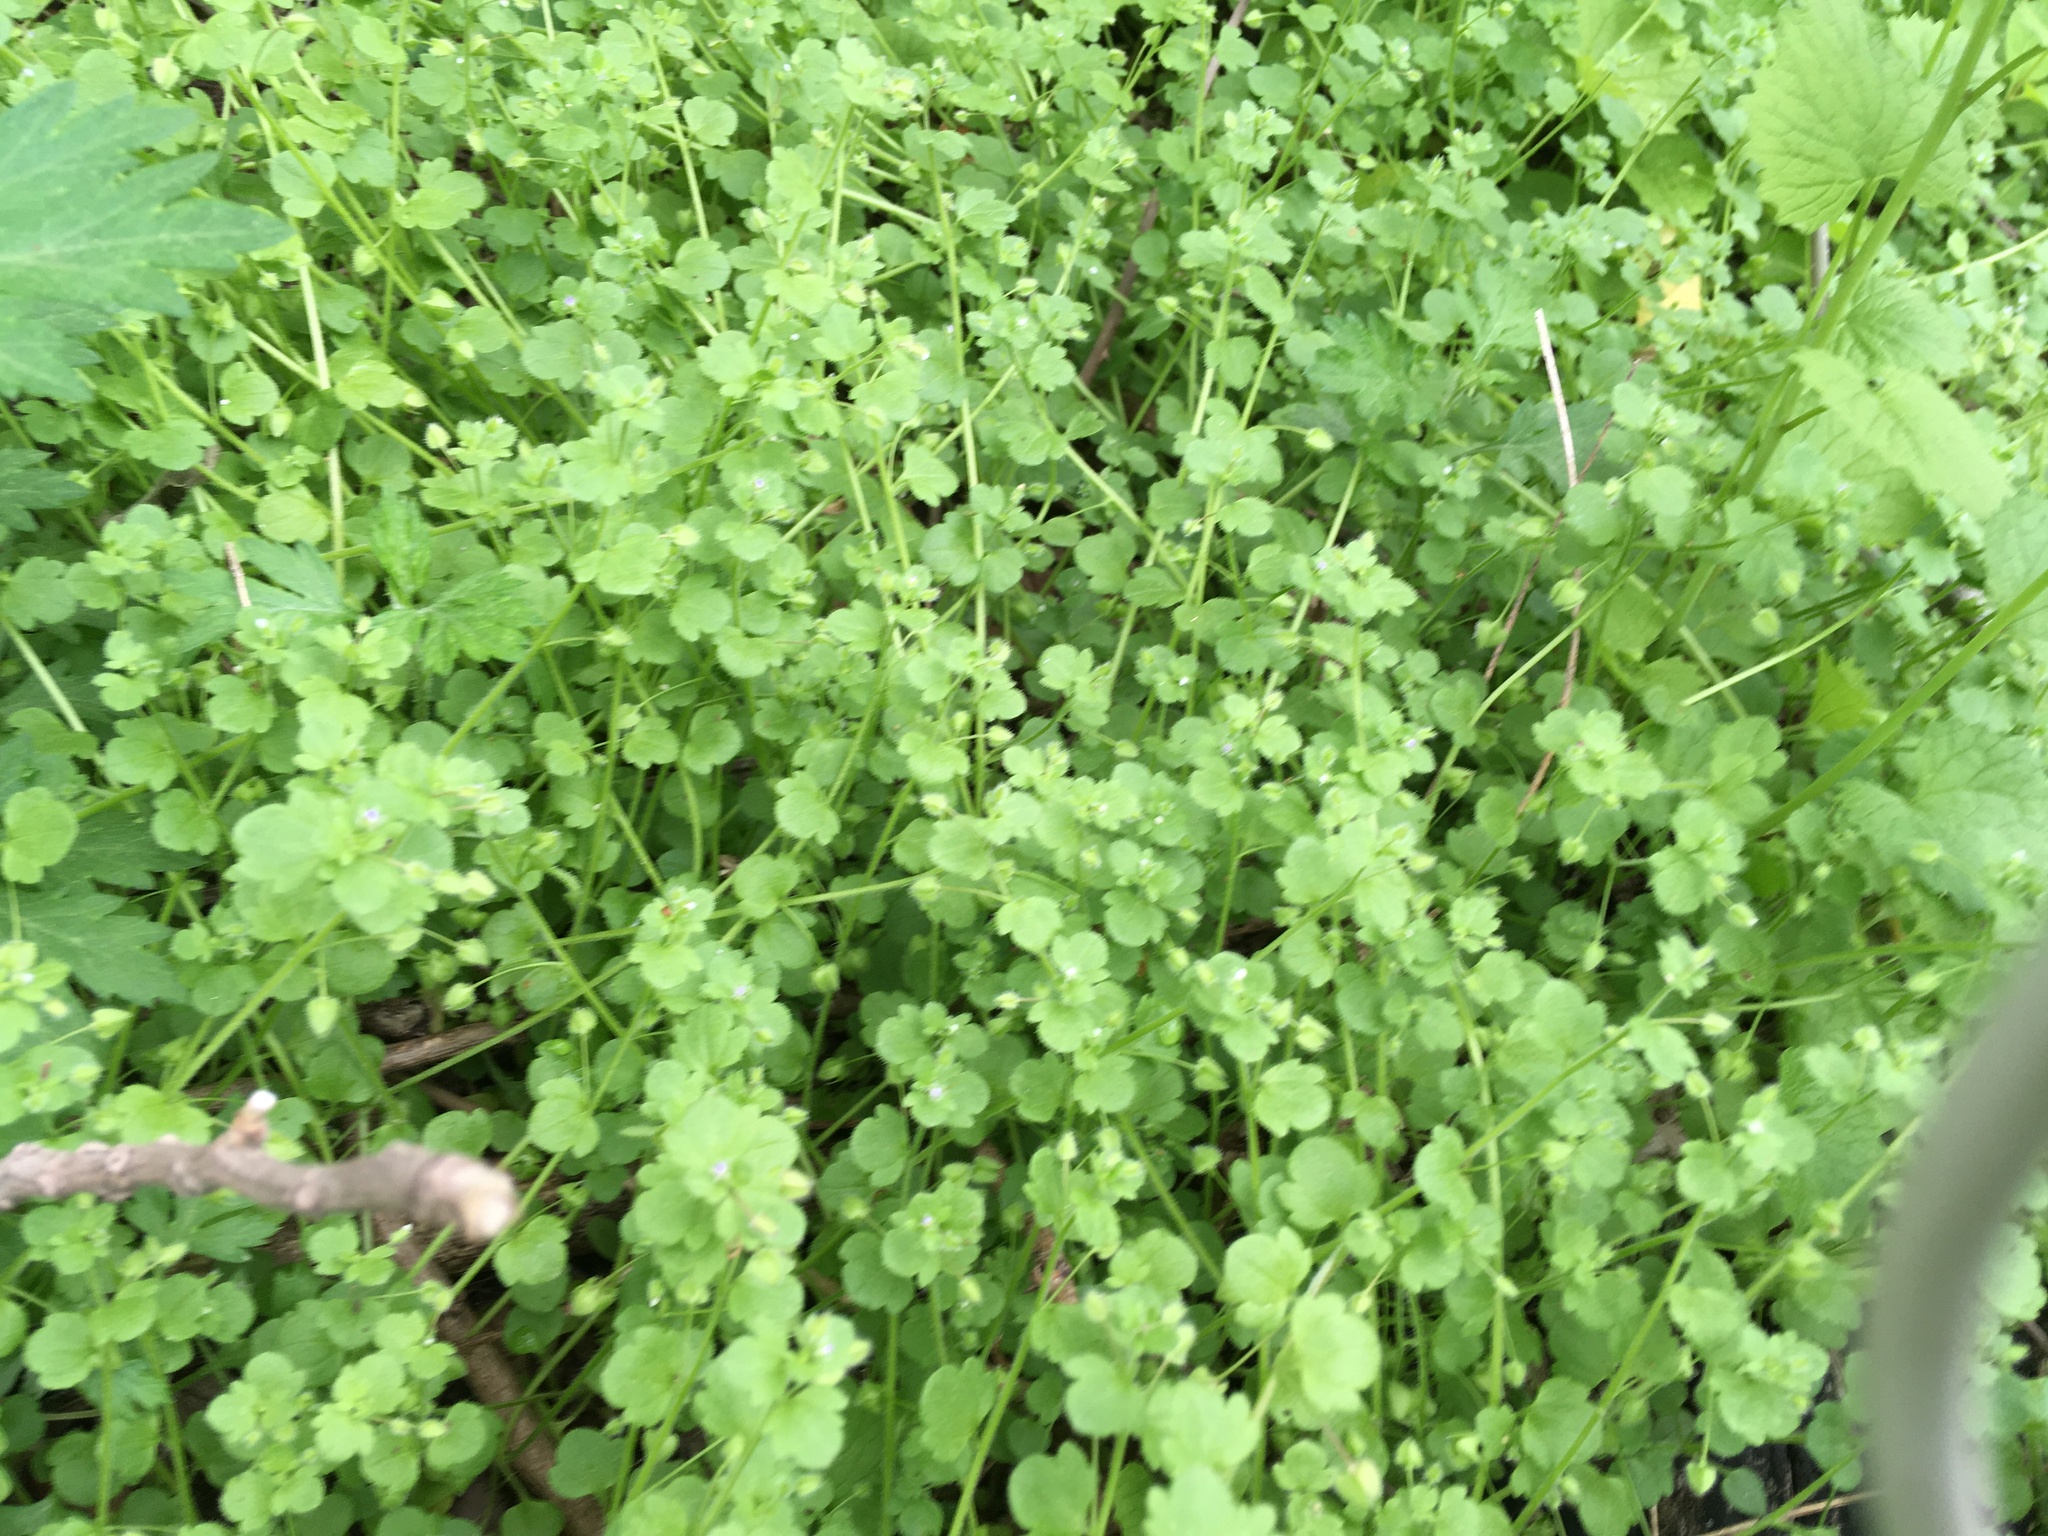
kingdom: Plantae
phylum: Tracheophyta
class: Magnoliopsida
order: Lamiales
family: Plantaginaceae
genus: Veronica
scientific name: Veronica hederifolia
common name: Ivy-leaved speedwell
